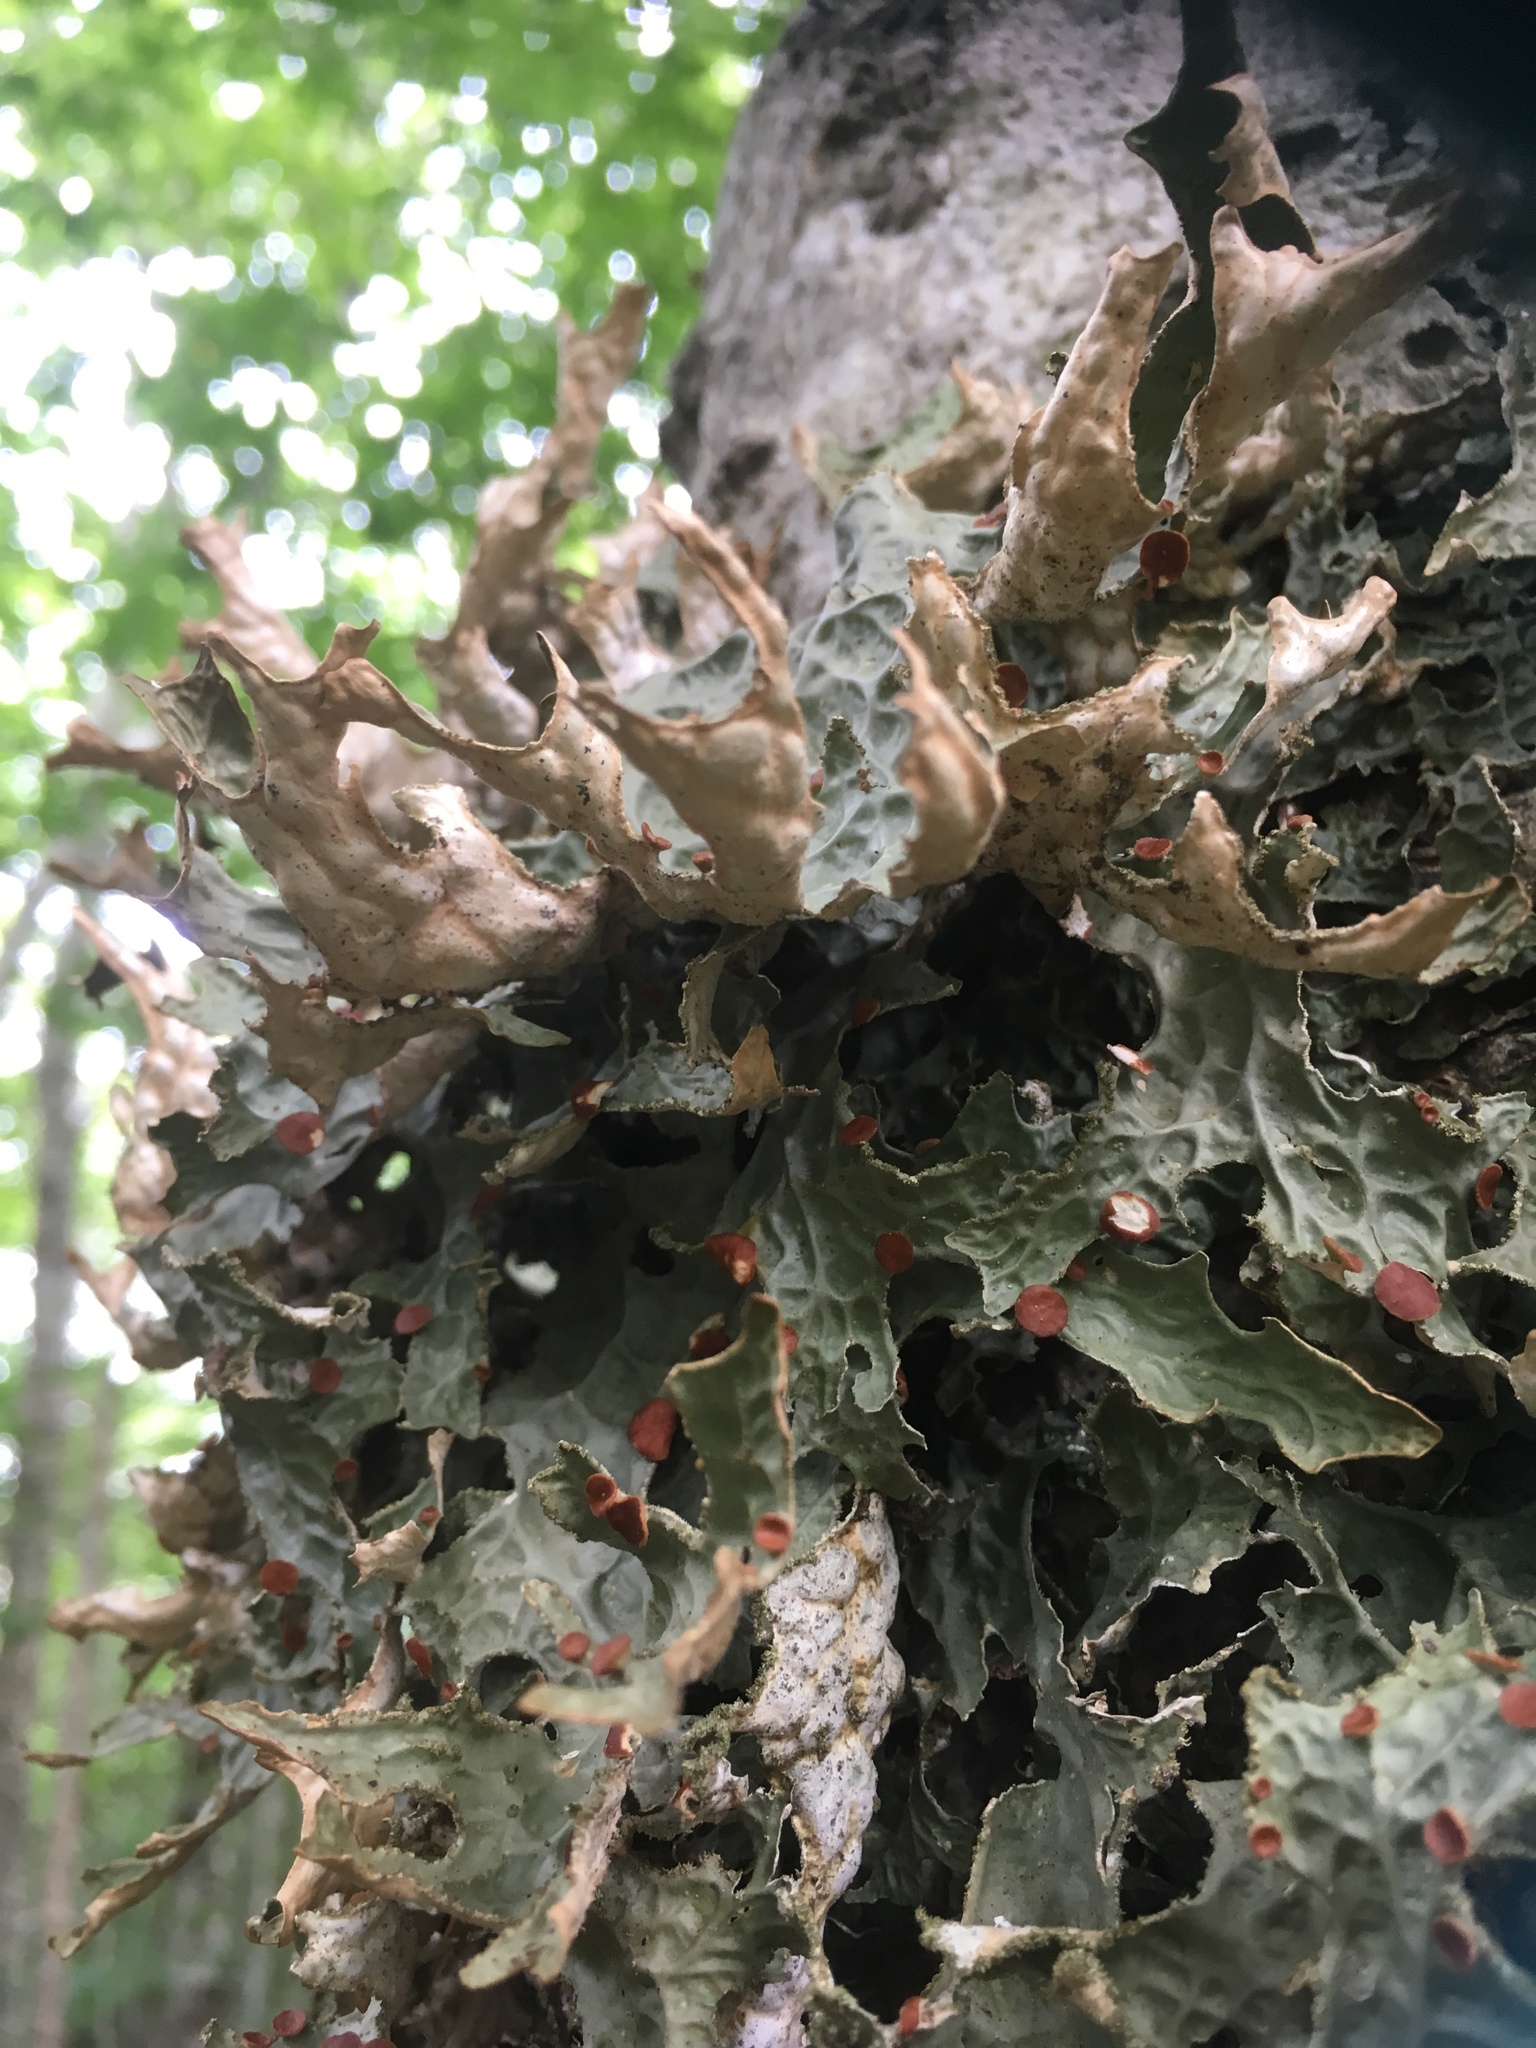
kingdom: Fungi
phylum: Ascomycota
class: Lecanoromycetes
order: Peltigerales
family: Lobariaceae
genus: Lobaria
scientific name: Lobaria pulmonaria
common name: Lungwort
